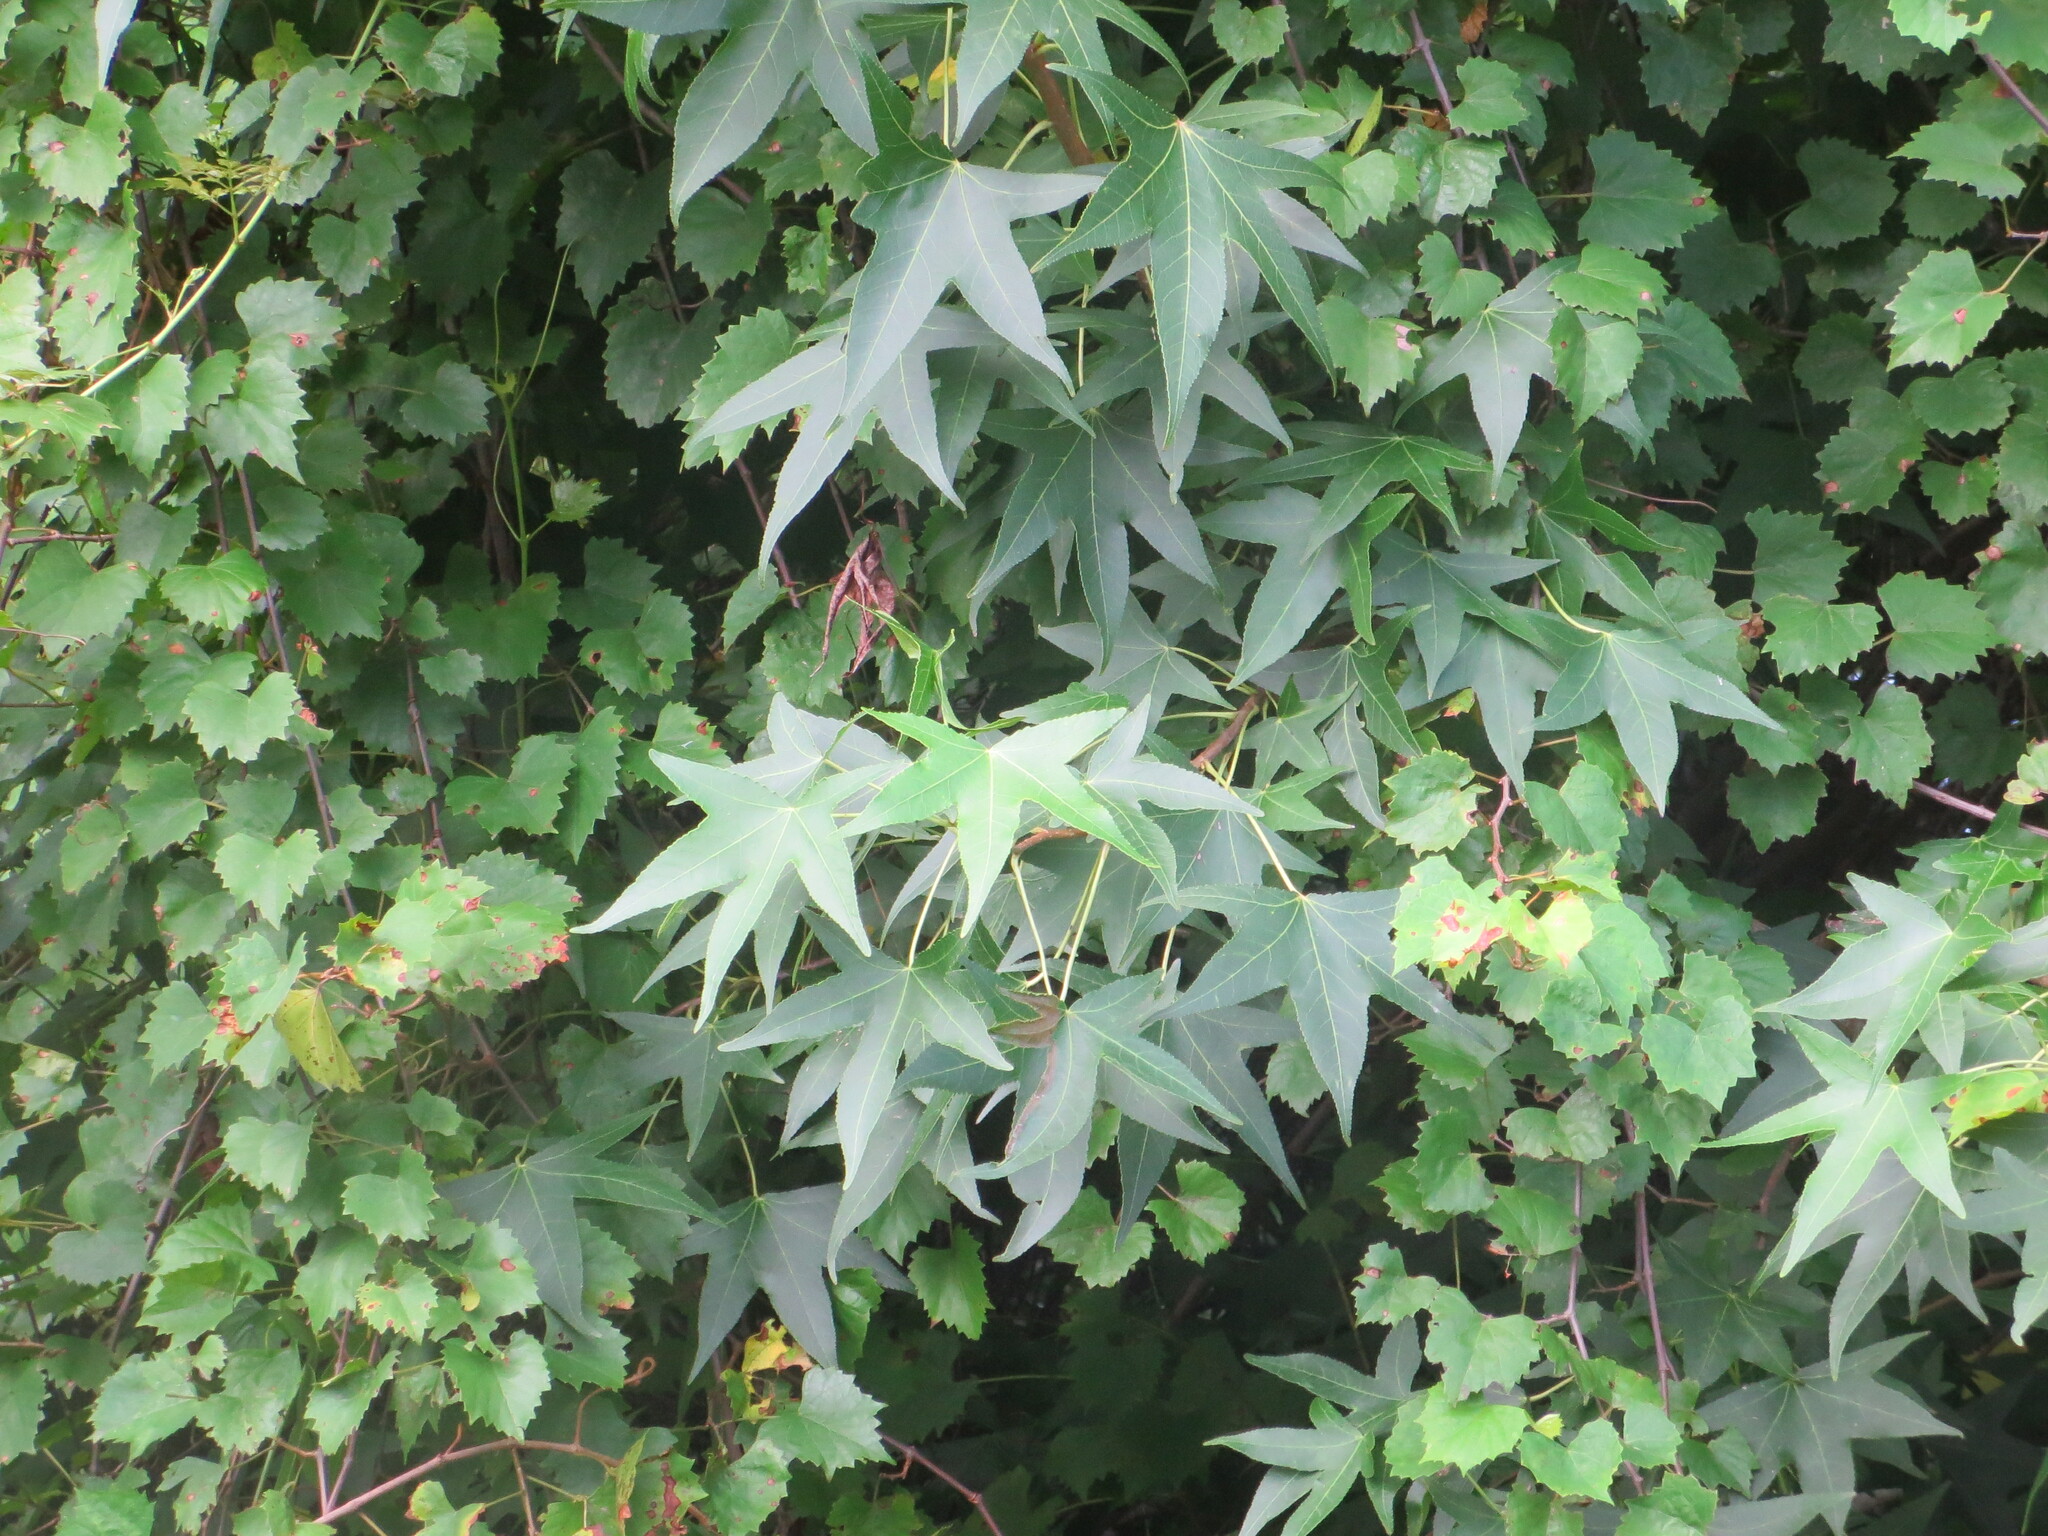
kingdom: Plantae
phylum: Tracheophyta
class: Magnoliopsida
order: Saxifragales
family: Altingiaceae
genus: Liquidambar
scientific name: Liquidambar styraciflua
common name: Sweet gum
